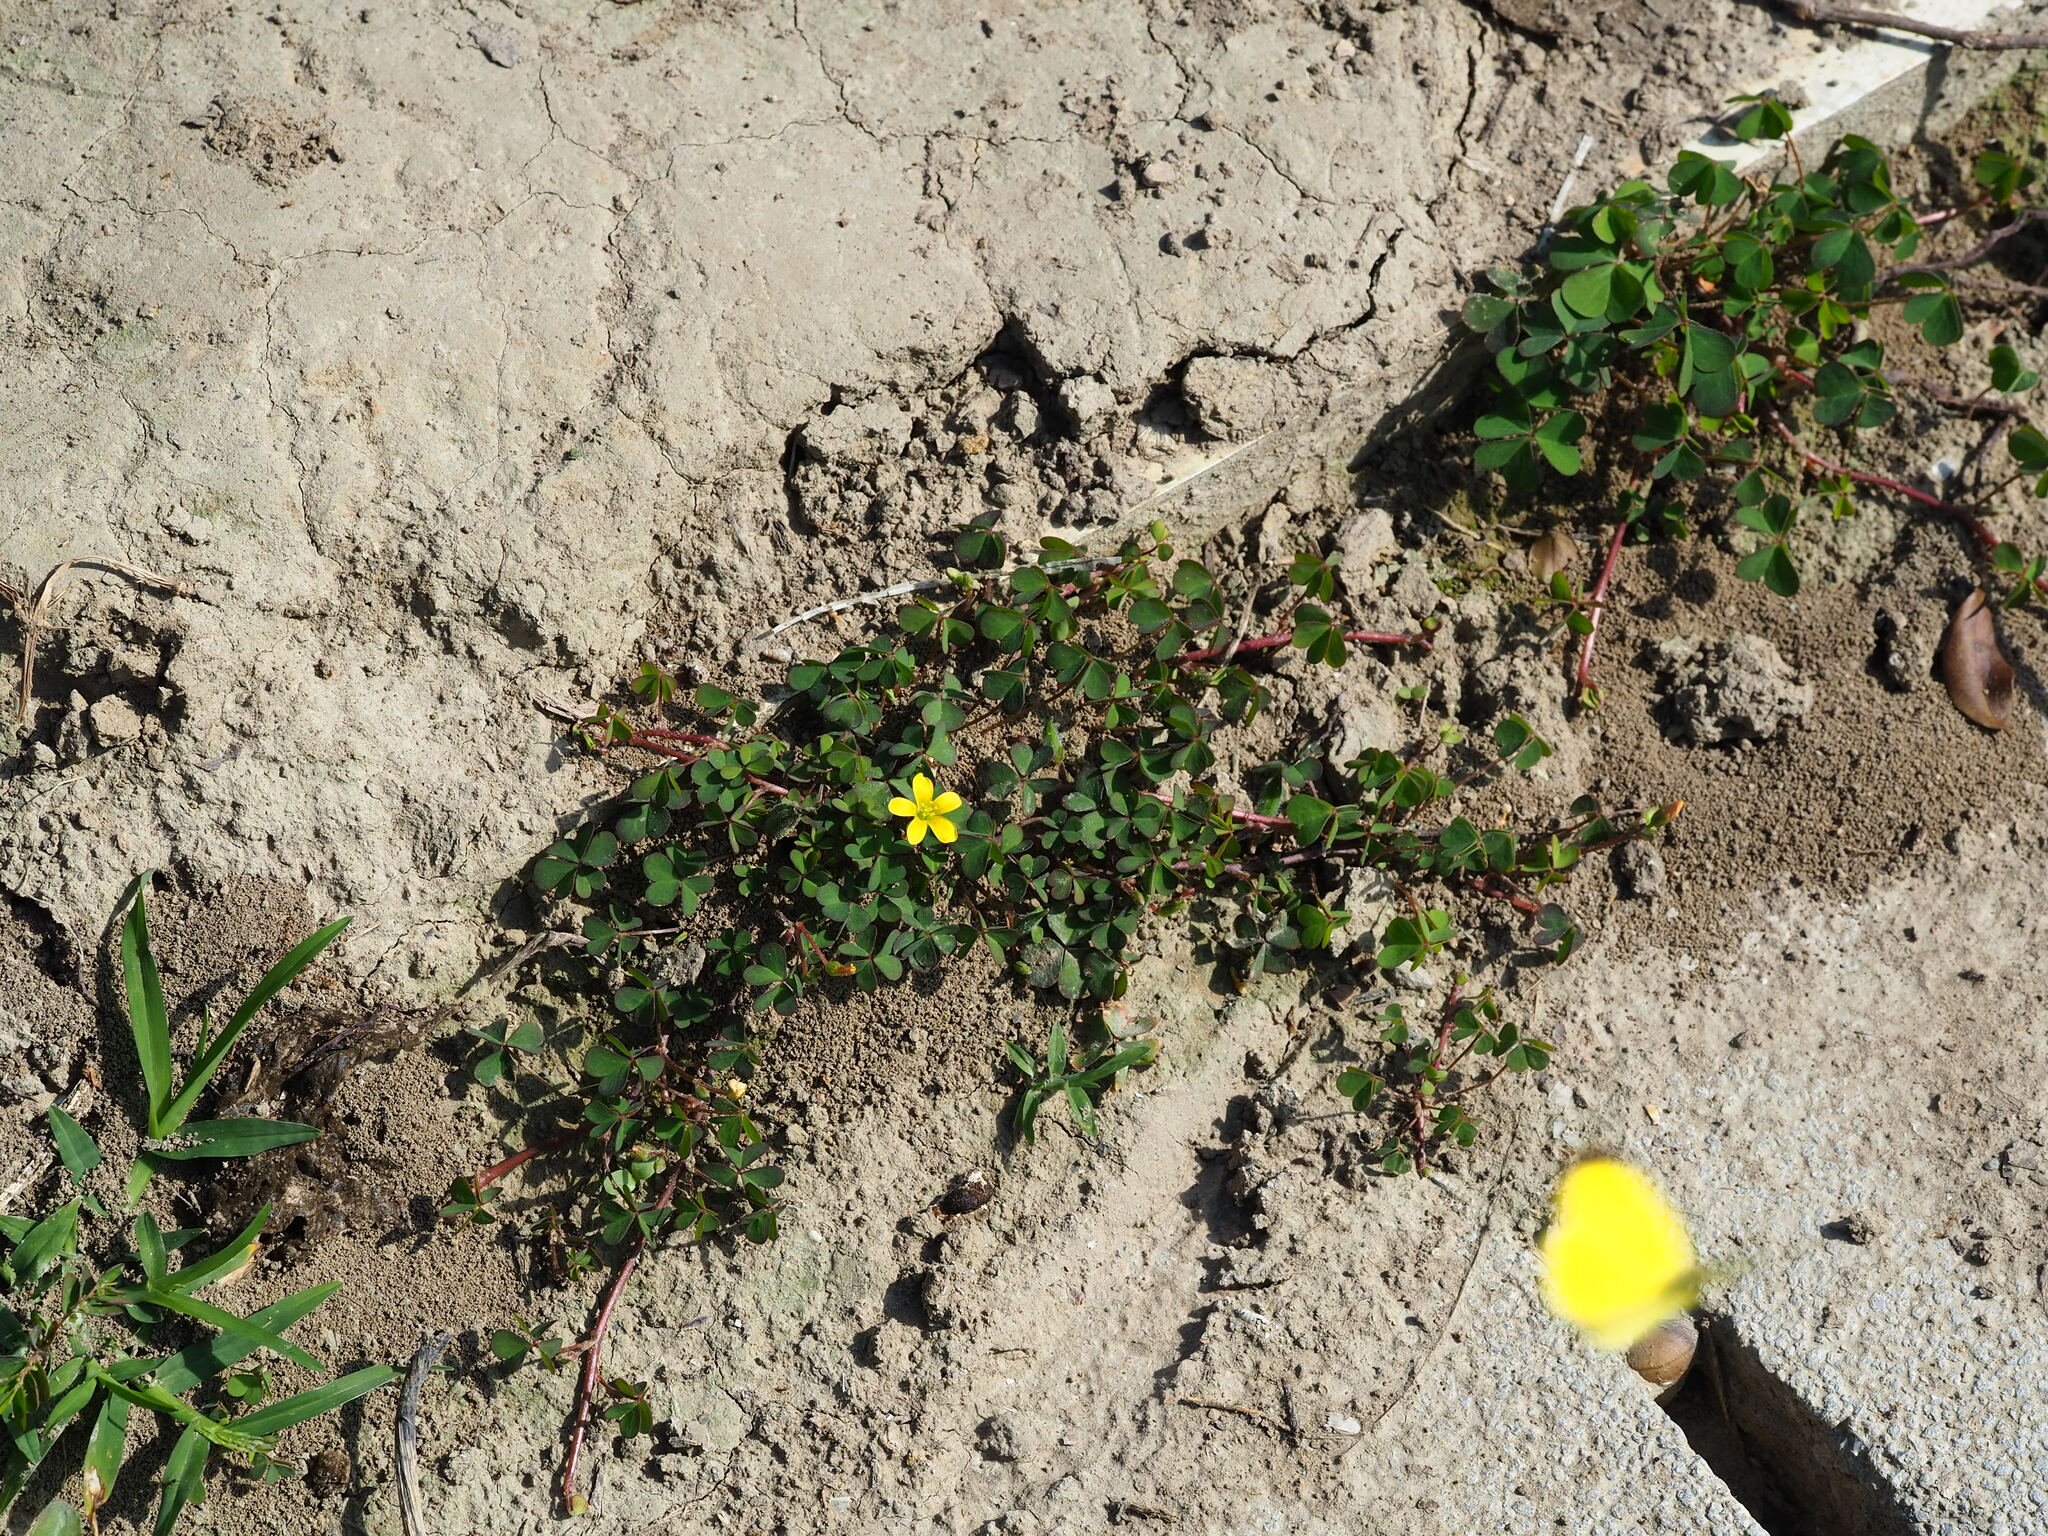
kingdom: Plantae
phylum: Tracheophyta
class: Magnoliopsida
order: Oxalidales
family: Oxalidaceae
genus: Oxalis
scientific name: Oxalis corniculata
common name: Procumbent yellow-sorrel
